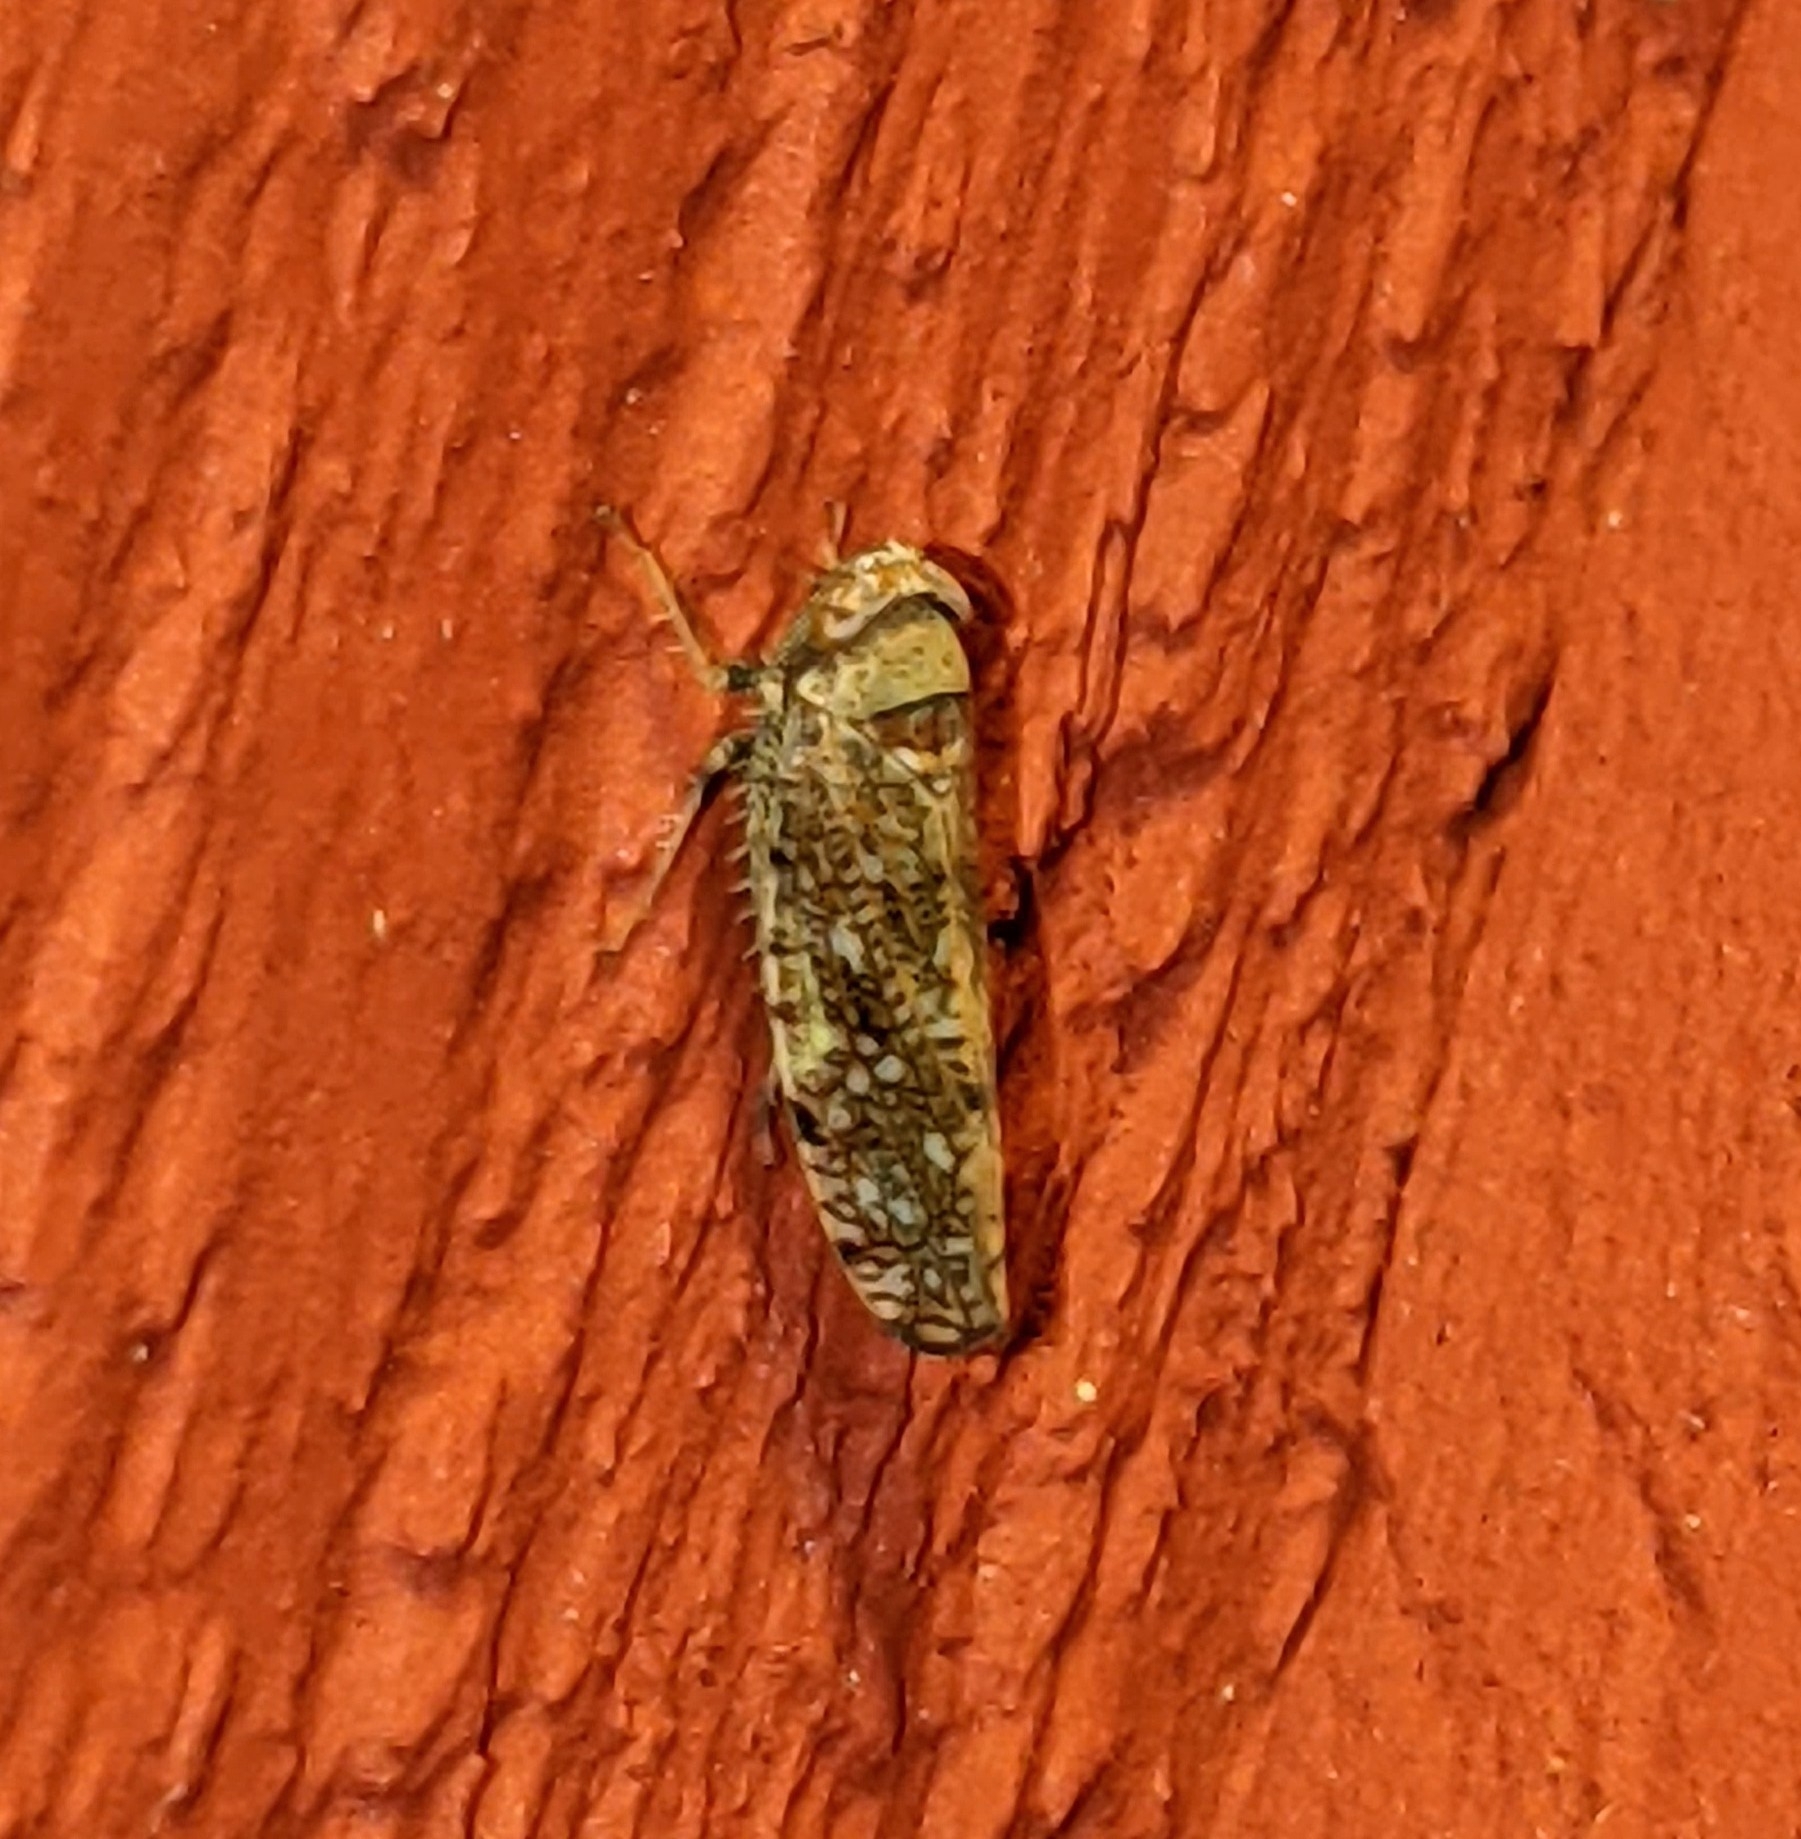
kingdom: Animalia
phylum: Arthropoda
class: Insecta
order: Hemiptera
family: Cicadellidae
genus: Orientus
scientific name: Orientus ishidae
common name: Japanese leafhopper
